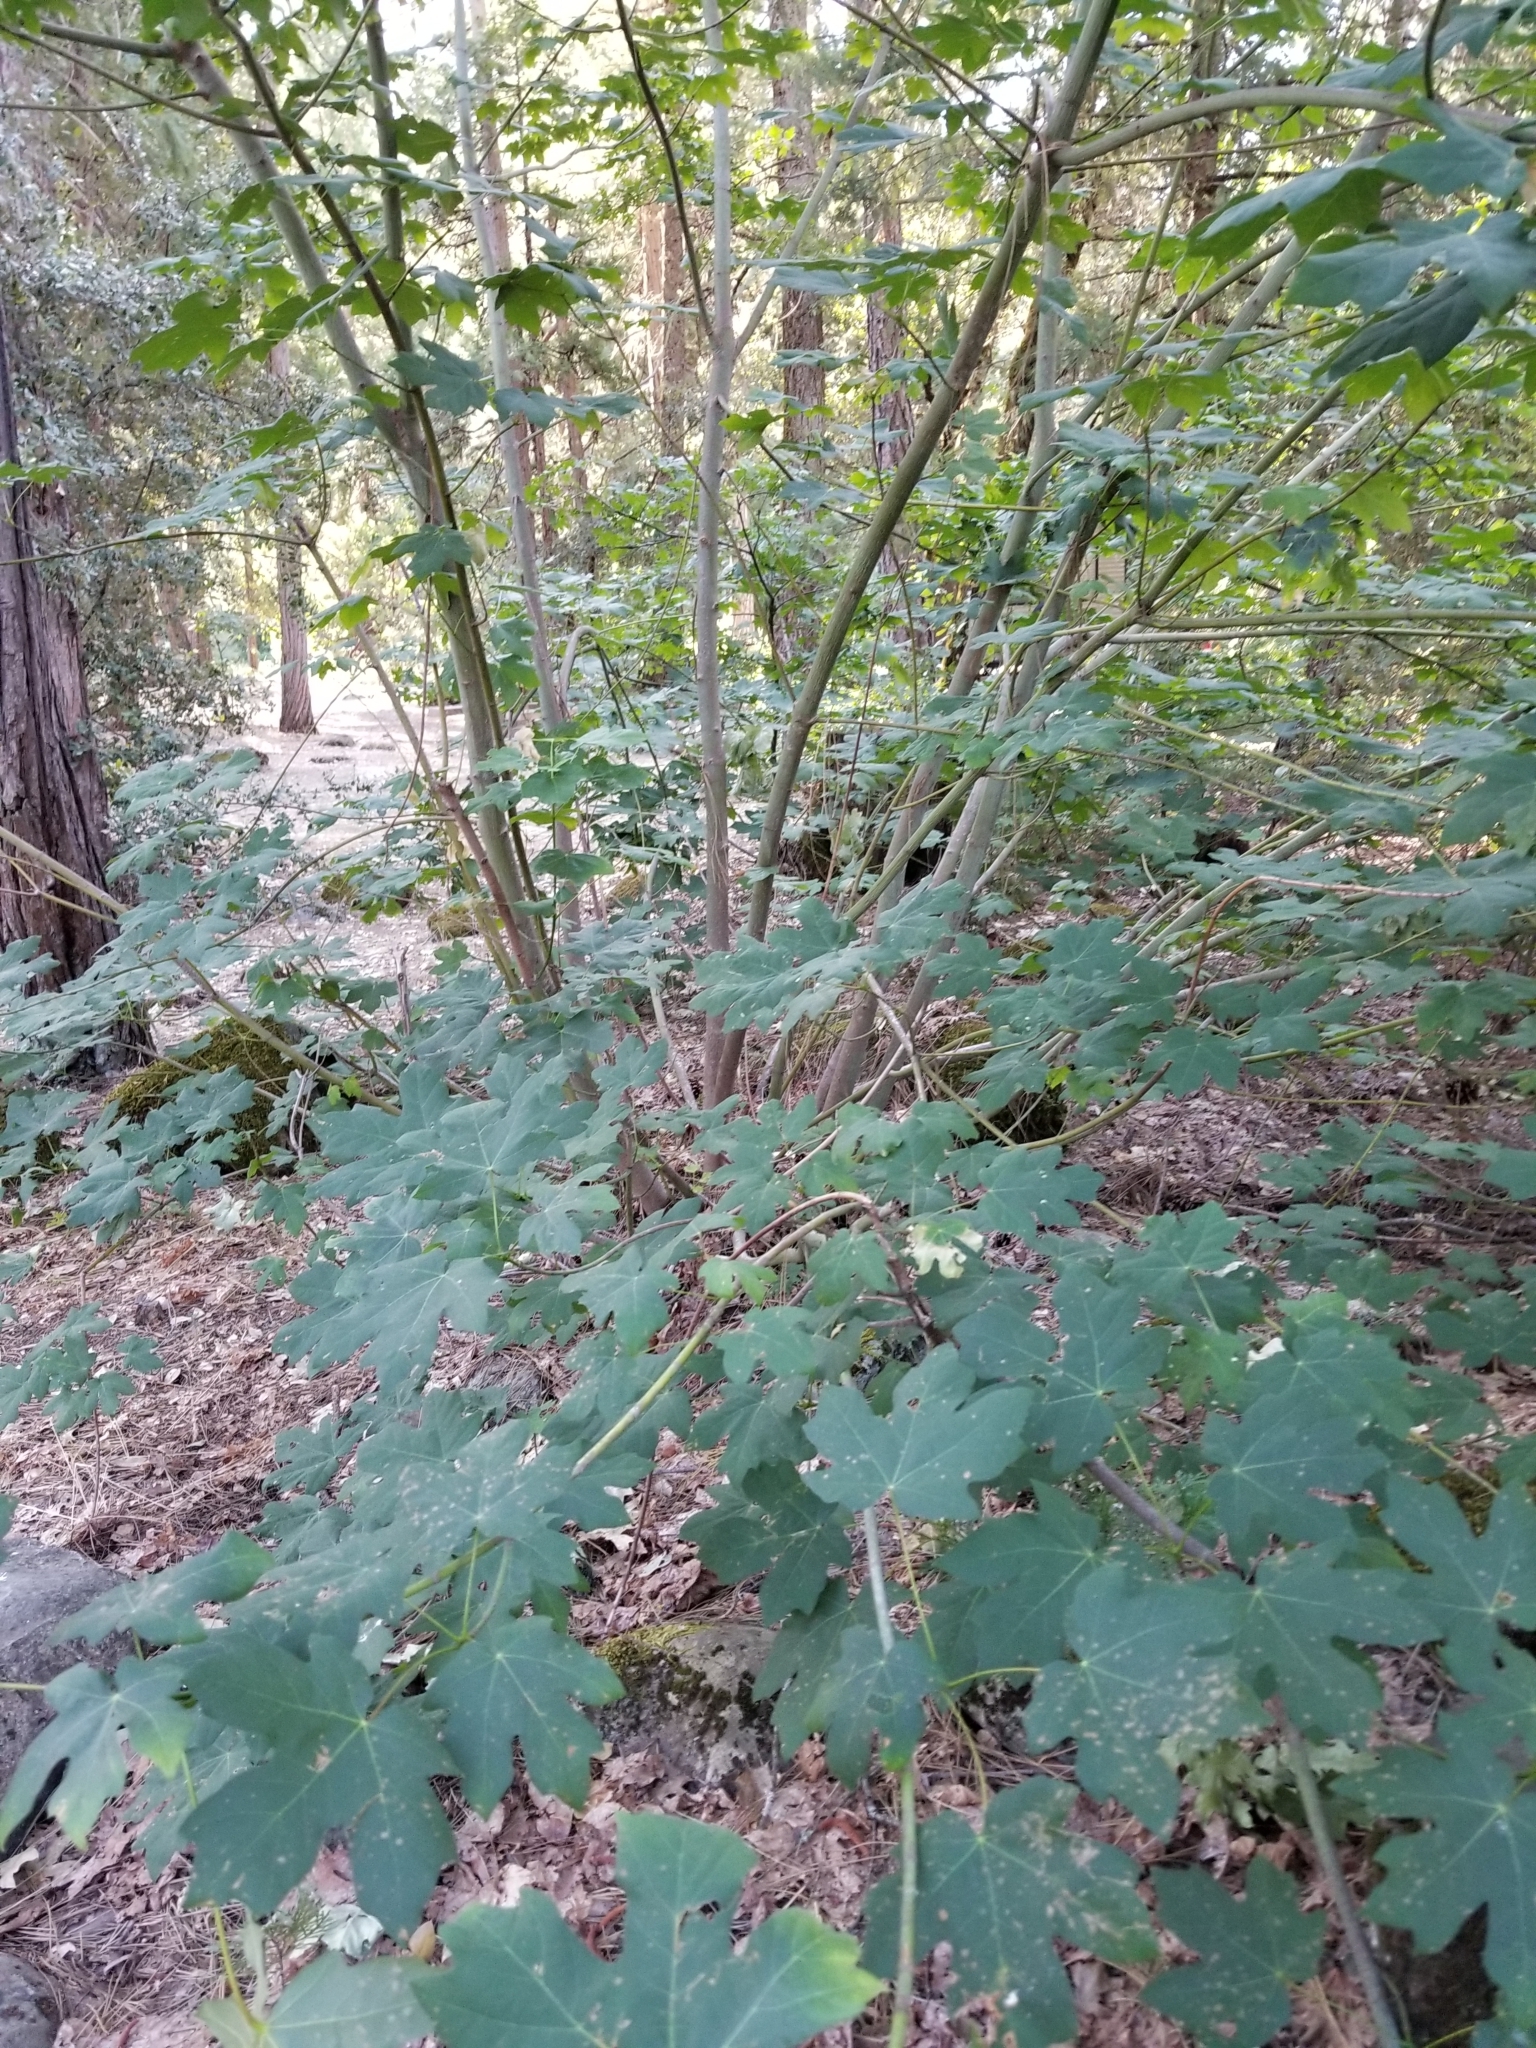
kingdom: Plantae
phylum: Tracheophyta
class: Magnoliopsida
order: Sapindales
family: Sapindaceae
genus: Acer
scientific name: Acer macrophyllum
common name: Oregon maple
